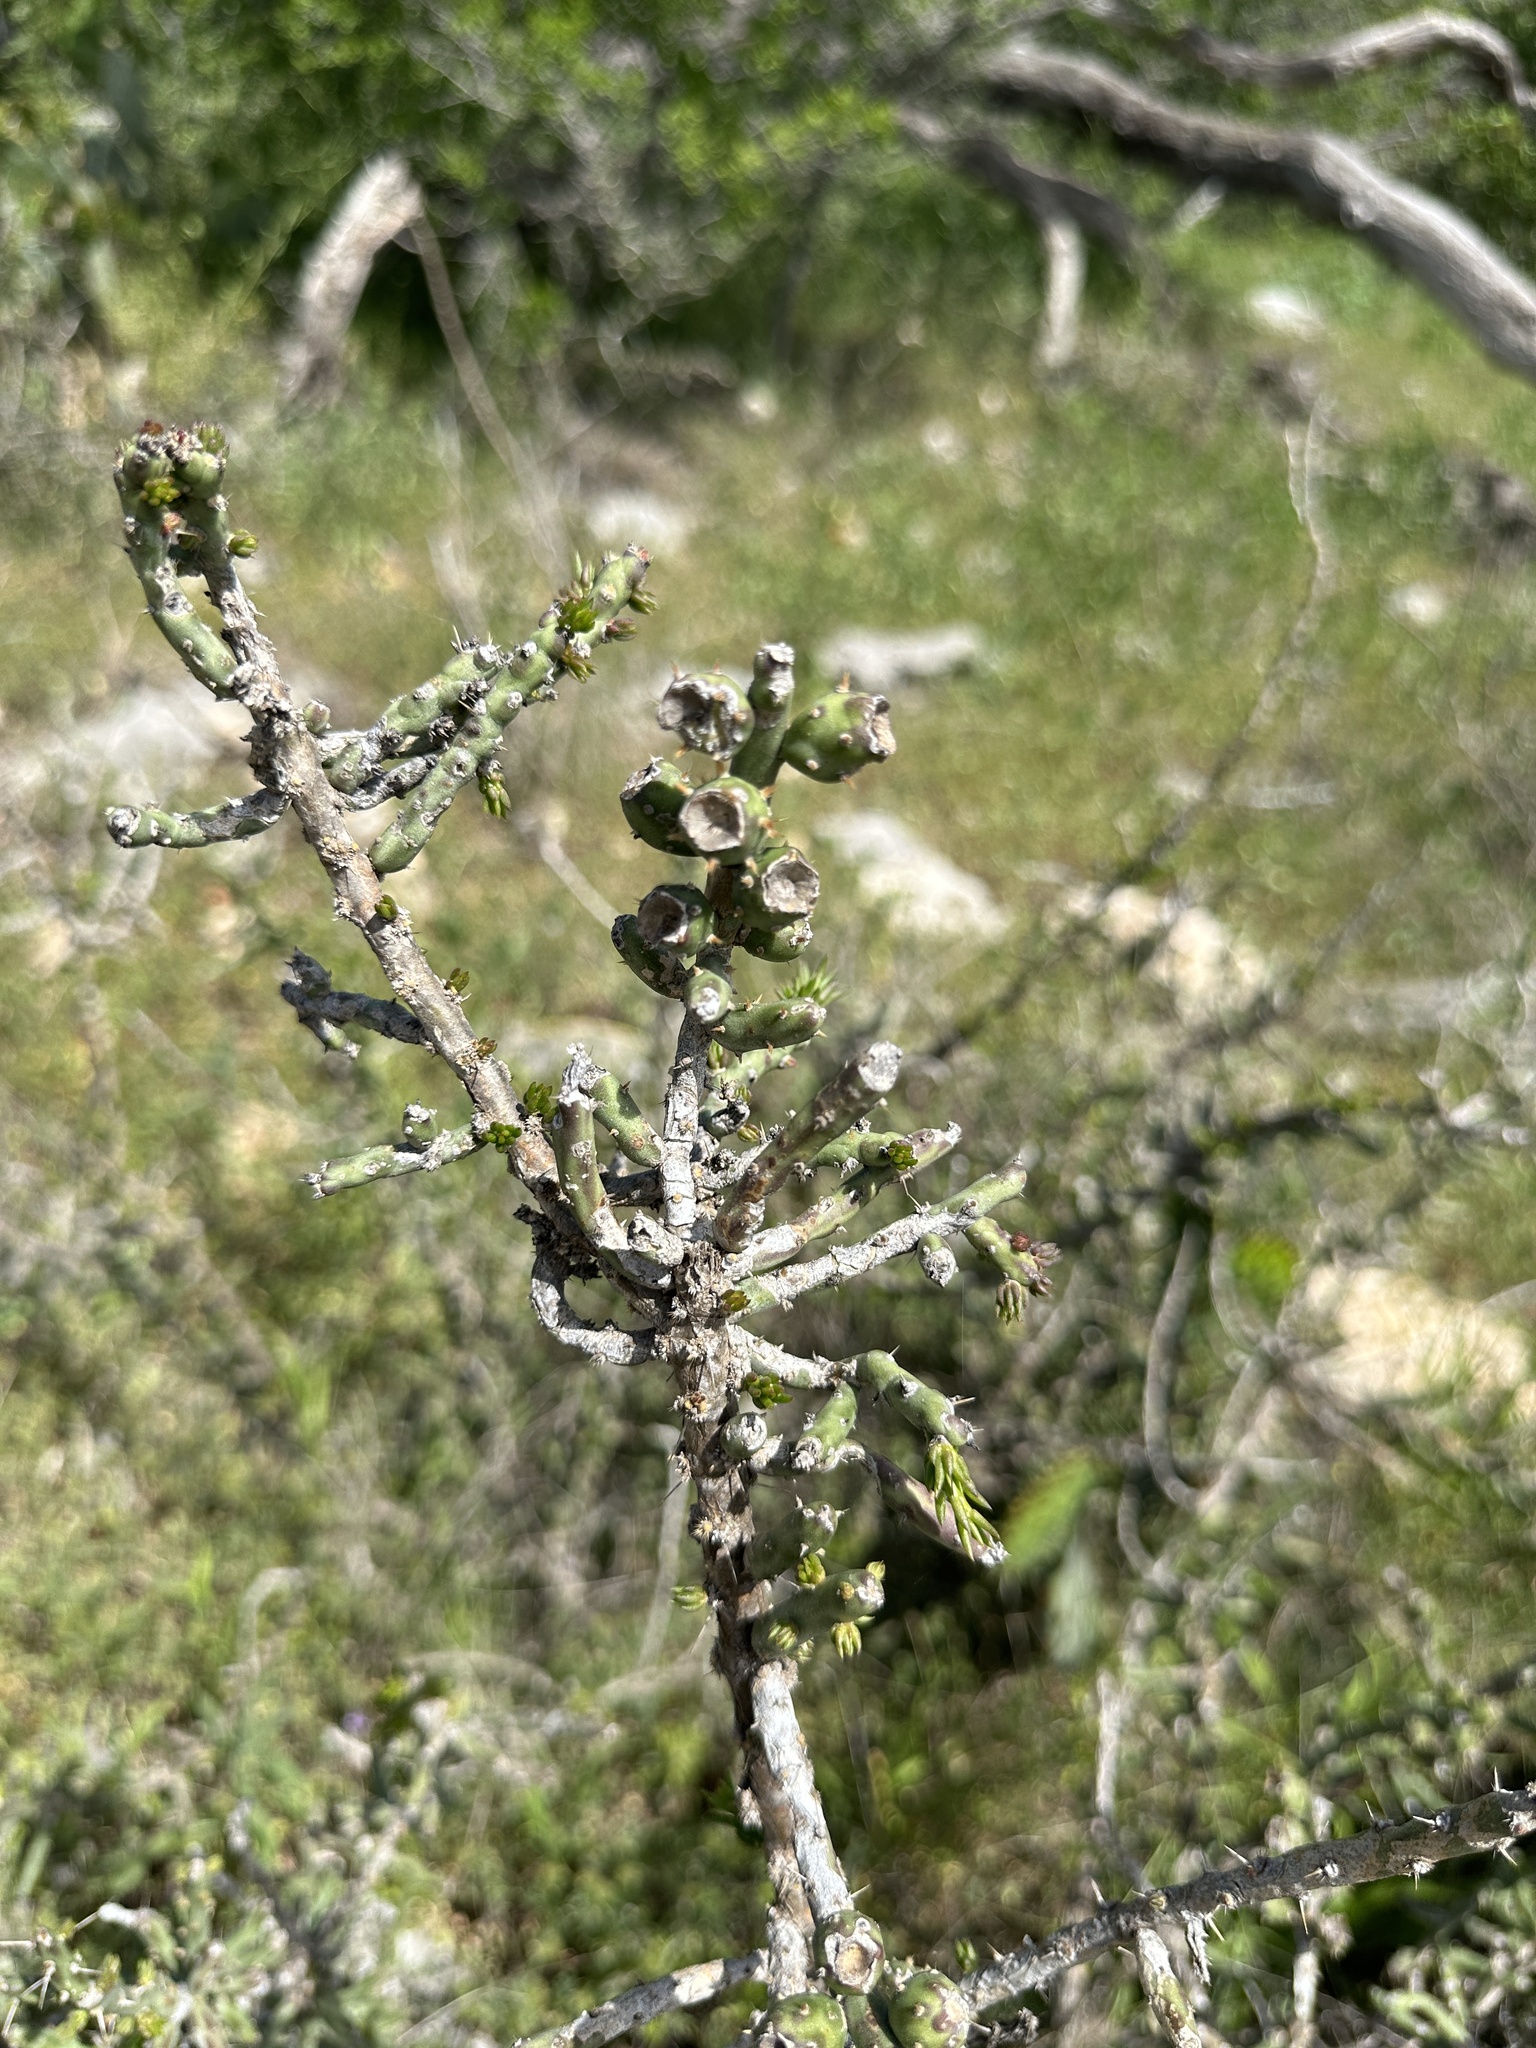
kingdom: Plantae
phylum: Tracheophyta
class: Magnoliopsida
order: Caryophyllales
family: Cactaceae
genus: Cylindropuntia
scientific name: Cylindropuntia leptocaulis
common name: Christmas cactus
